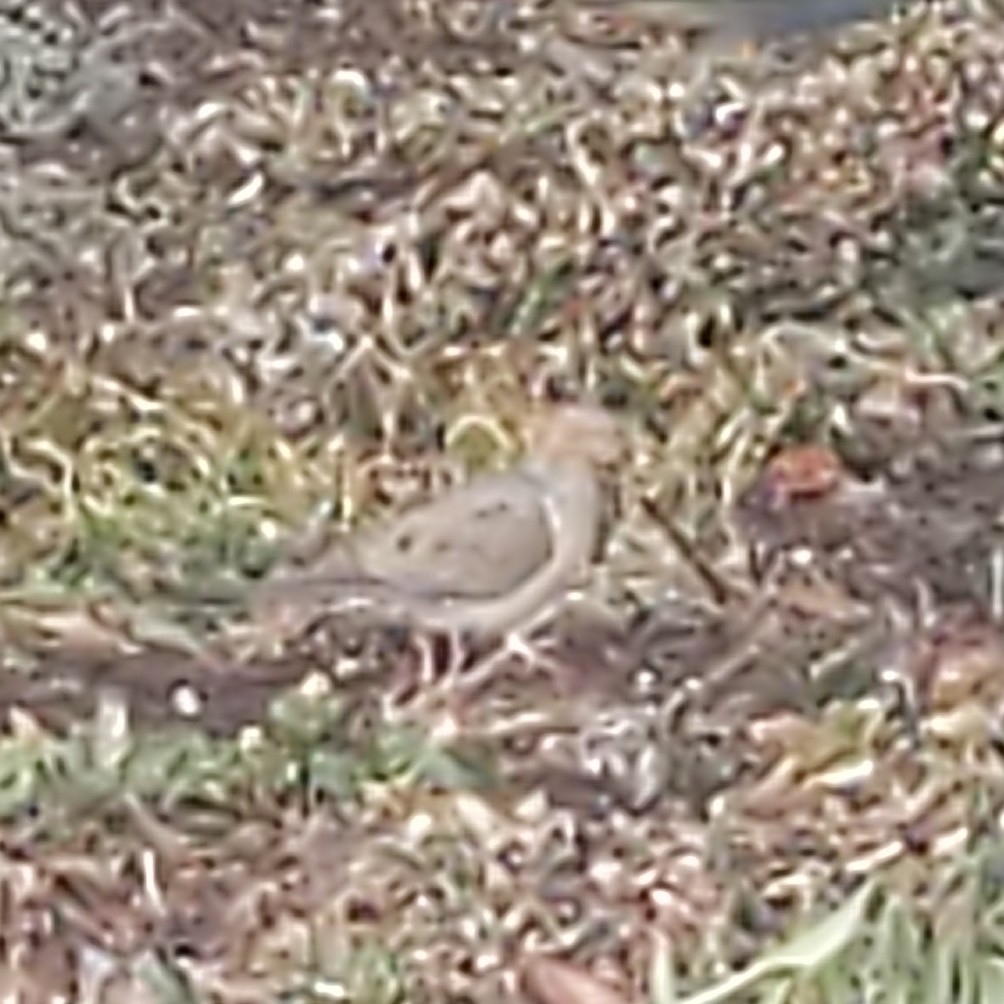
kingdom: Animalia
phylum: Chordata
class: Aves
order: Columbiformes
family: Columbidae
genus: Zenaida
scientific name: Zenaida macroura
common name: Mourning dove
